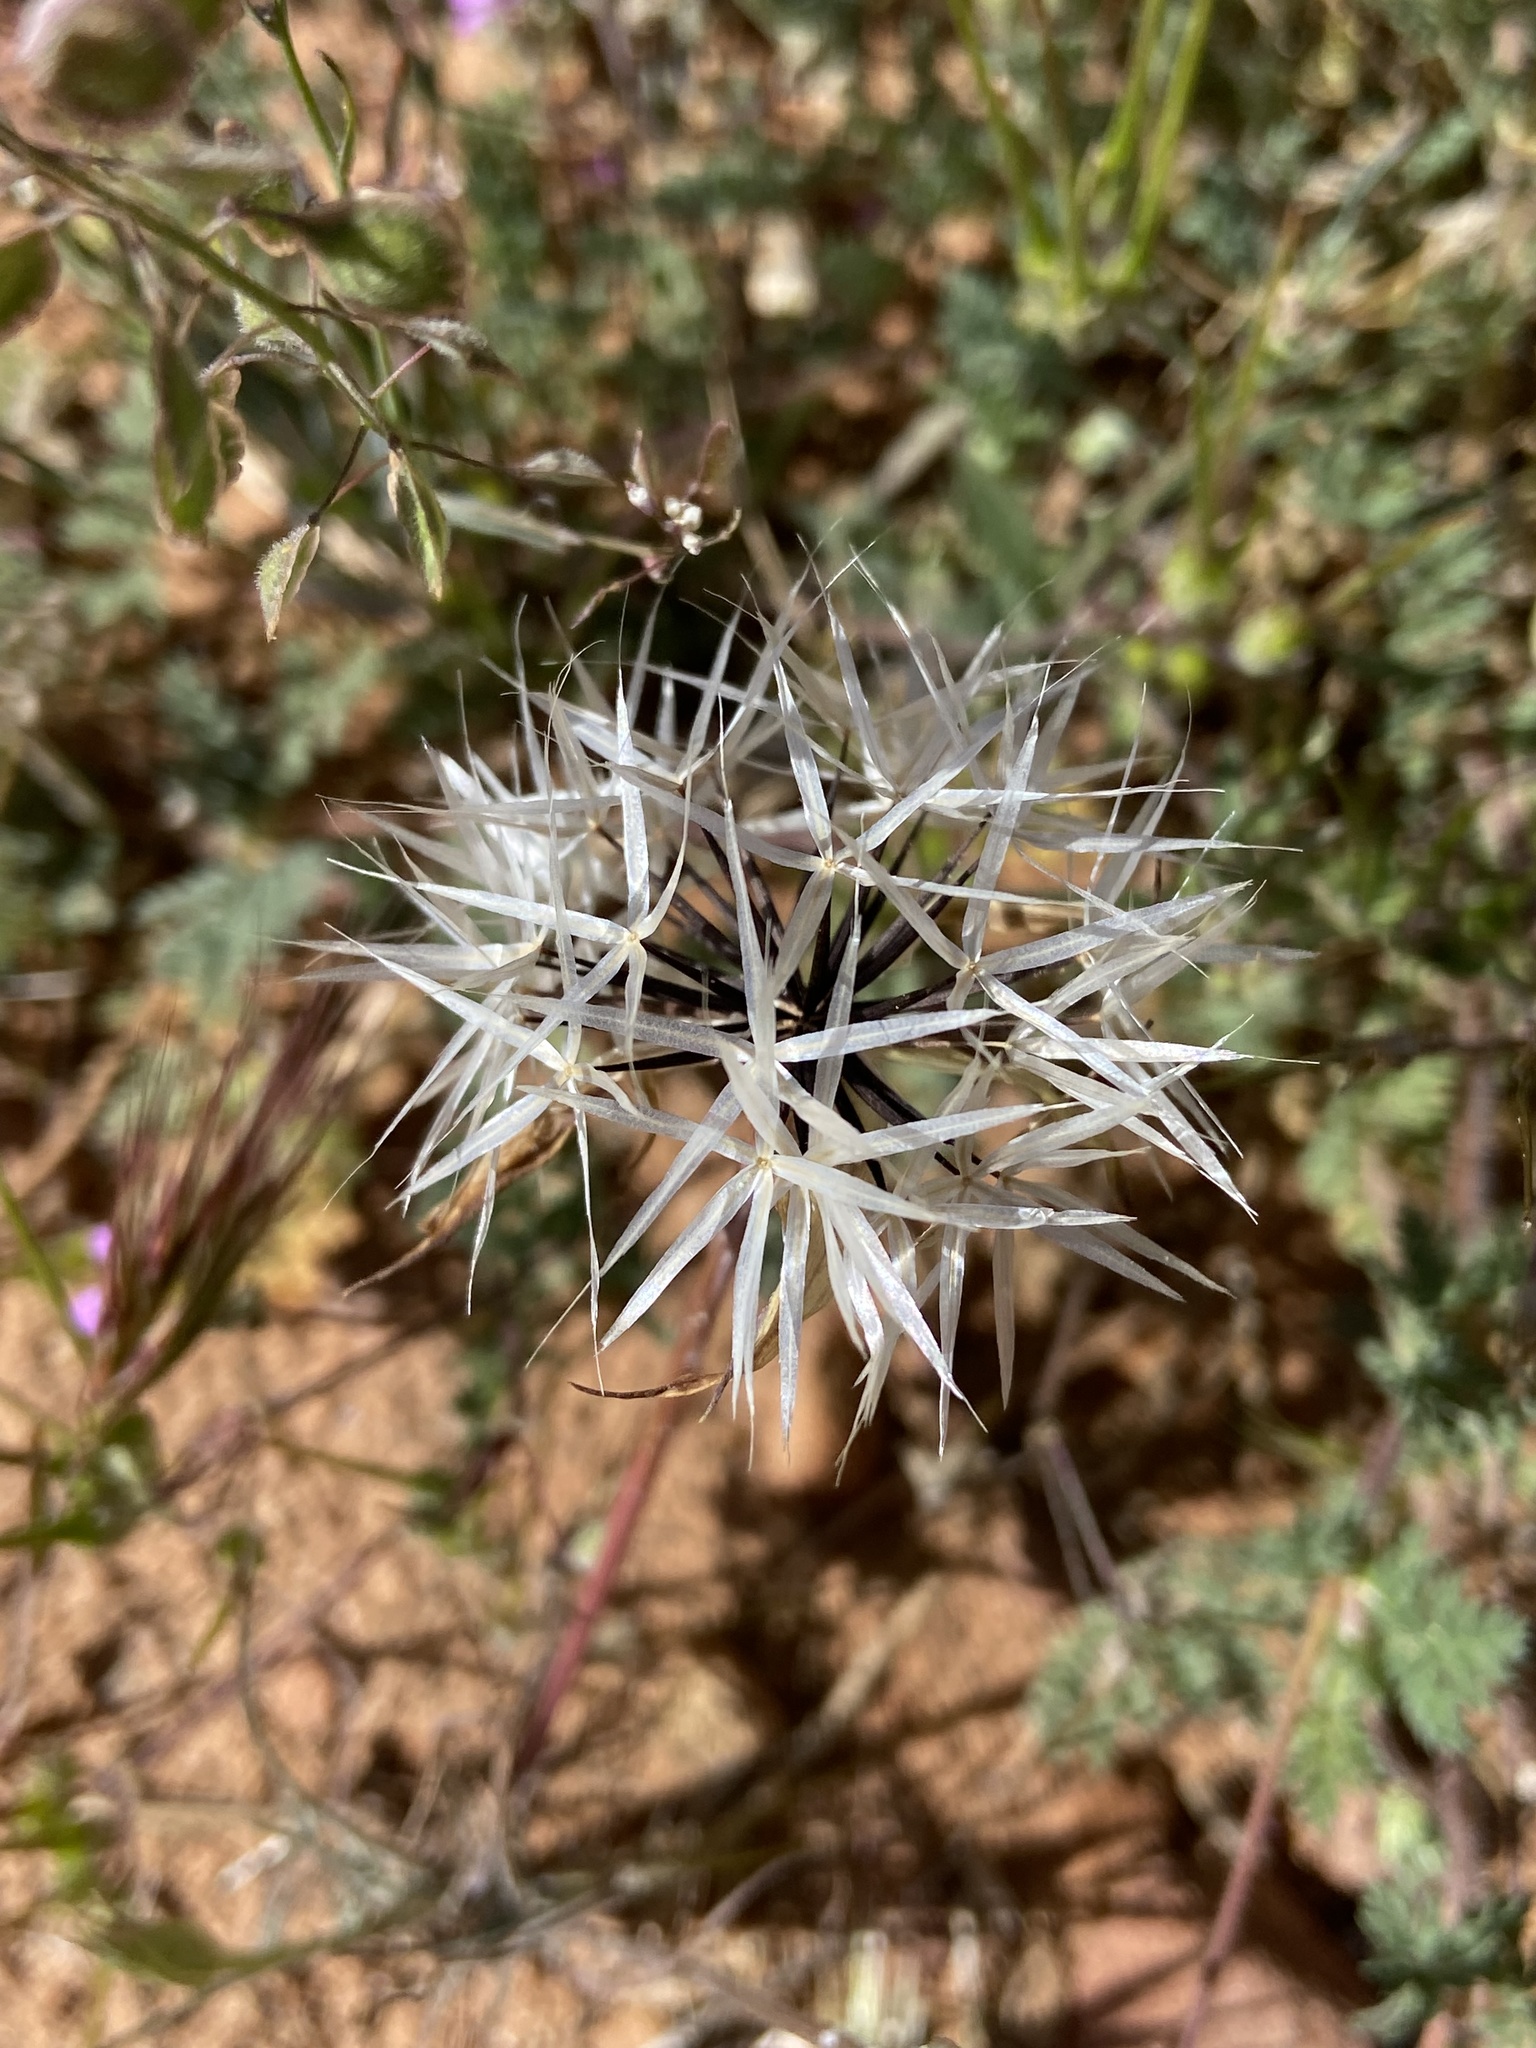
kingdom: Plantae
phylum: Tracheophyta
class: Magnoliopsida
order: Asterales
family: Asteraceae
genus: Microseris
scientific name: Microseris lindleyi
